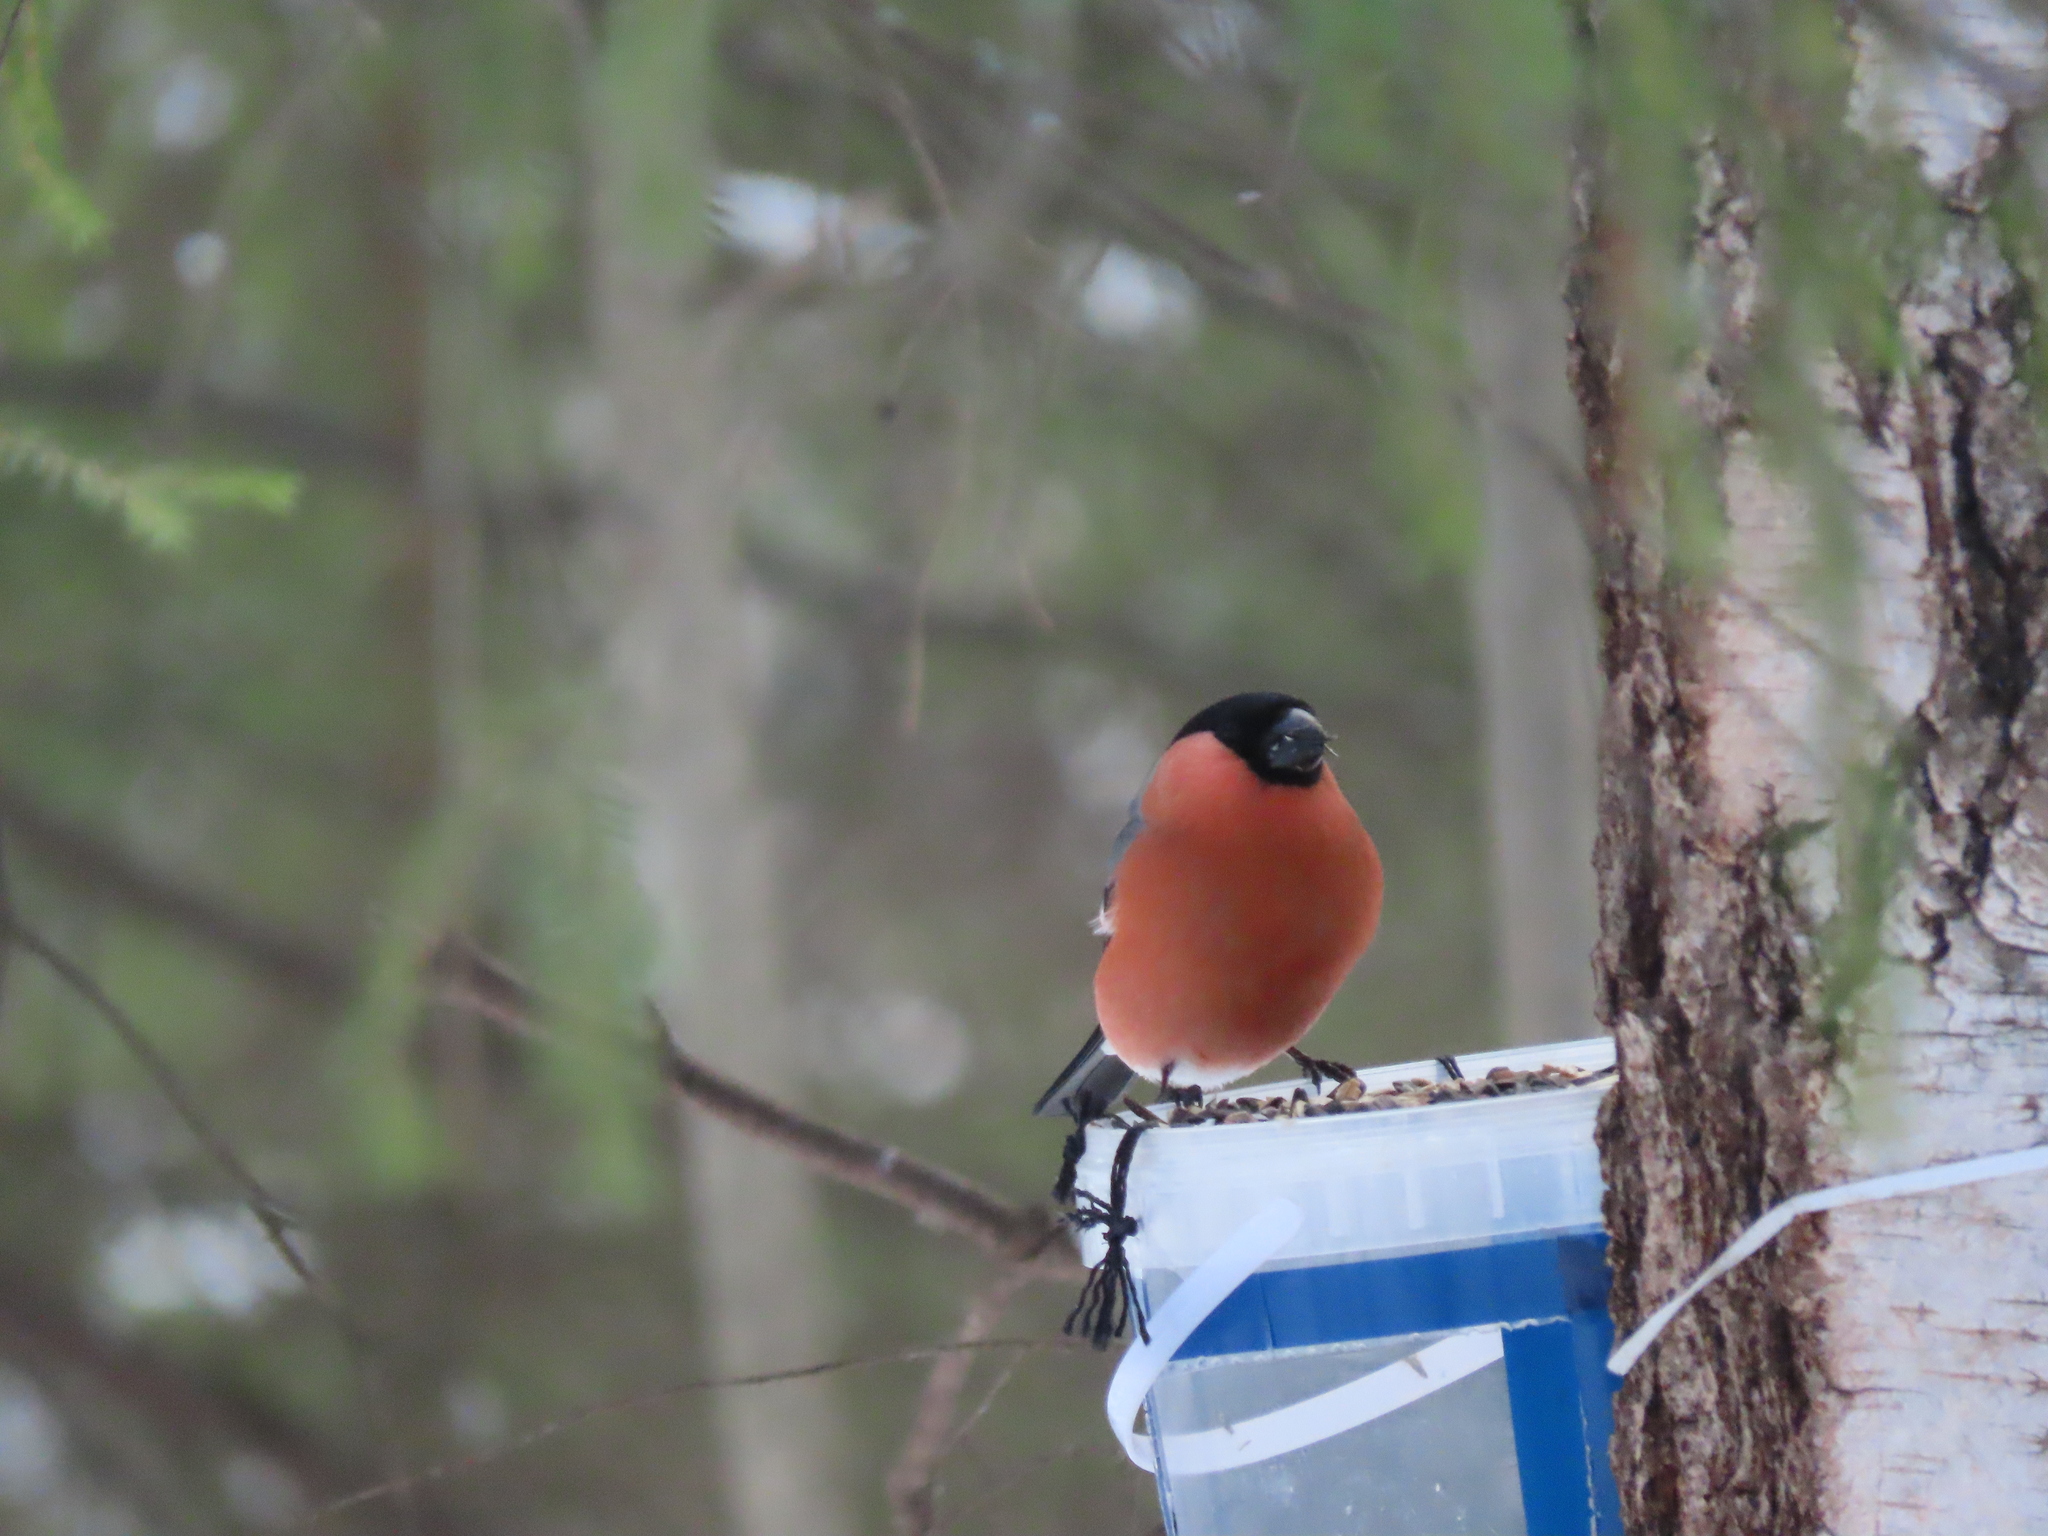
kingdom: Animalia
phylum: Chordata
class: Aves
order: Passeriformes
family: Fringillidae
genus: Pyrrhula
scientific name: Pyrrhula pyrrhula
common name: Eurasian bullfinch
